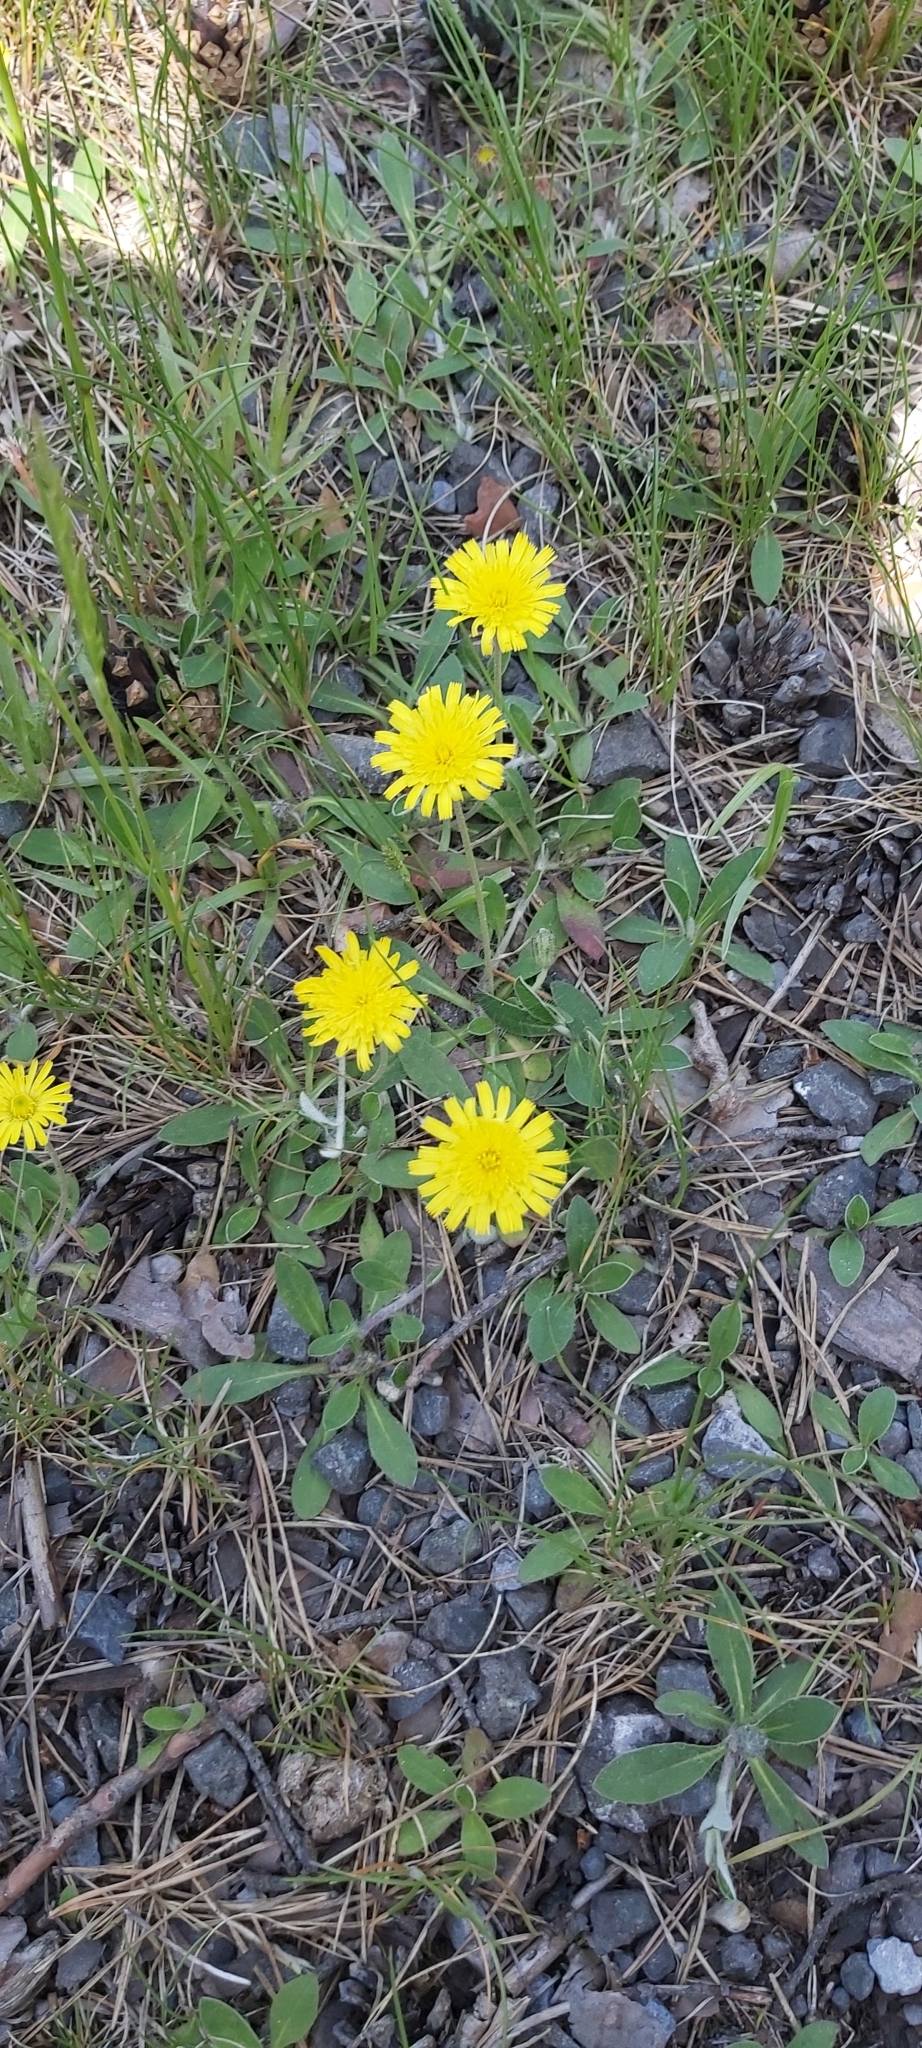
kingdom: Plantae
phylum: Tracheophyta
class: Magnoliopsida
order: Asterales
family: Asteraceae
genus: Pilosella
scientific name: Pilosella officinarum
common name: Mouse-ear hawkweed
